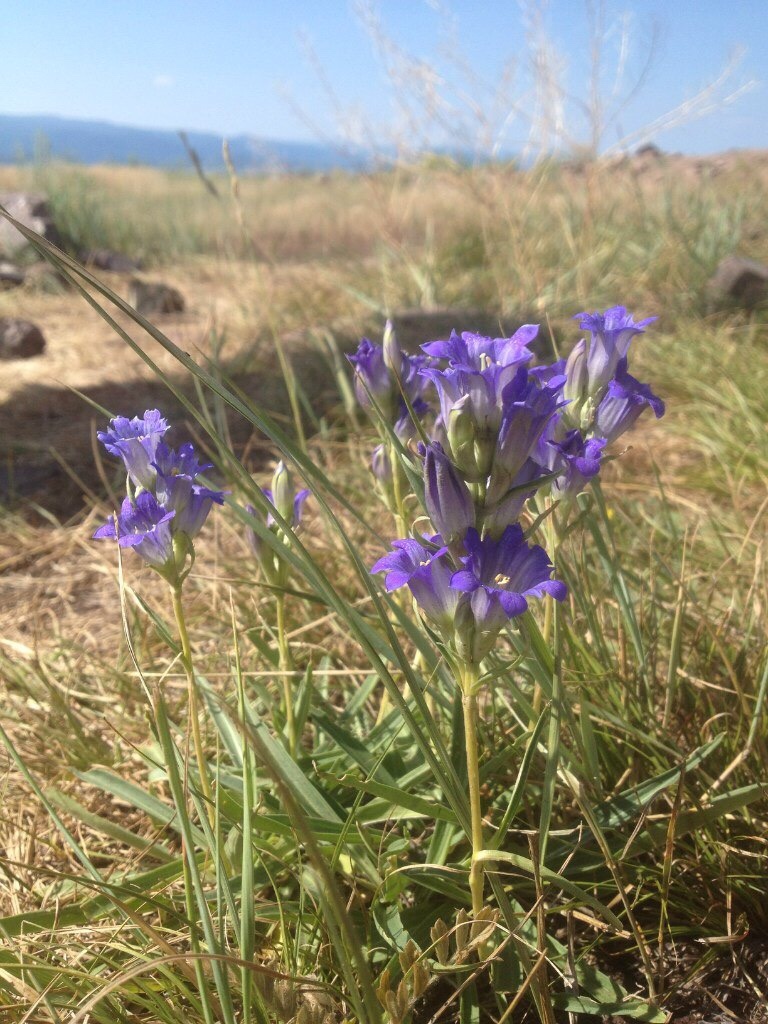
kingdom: Plantae
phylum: Tracheophyta
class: Magnoliopsida
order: Gentianales
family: Gentianaceae
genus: Gentiana
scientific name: Gentiana decumbens
